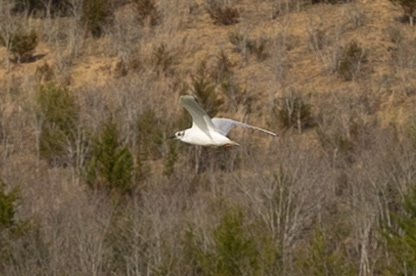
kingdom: Animalia
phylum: Chordata
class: Aves
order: Charadriiformes
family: Laridae
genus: Chroicocephalus
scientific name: Chroicocephalus philadelphia
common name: Bonaparte's gull
